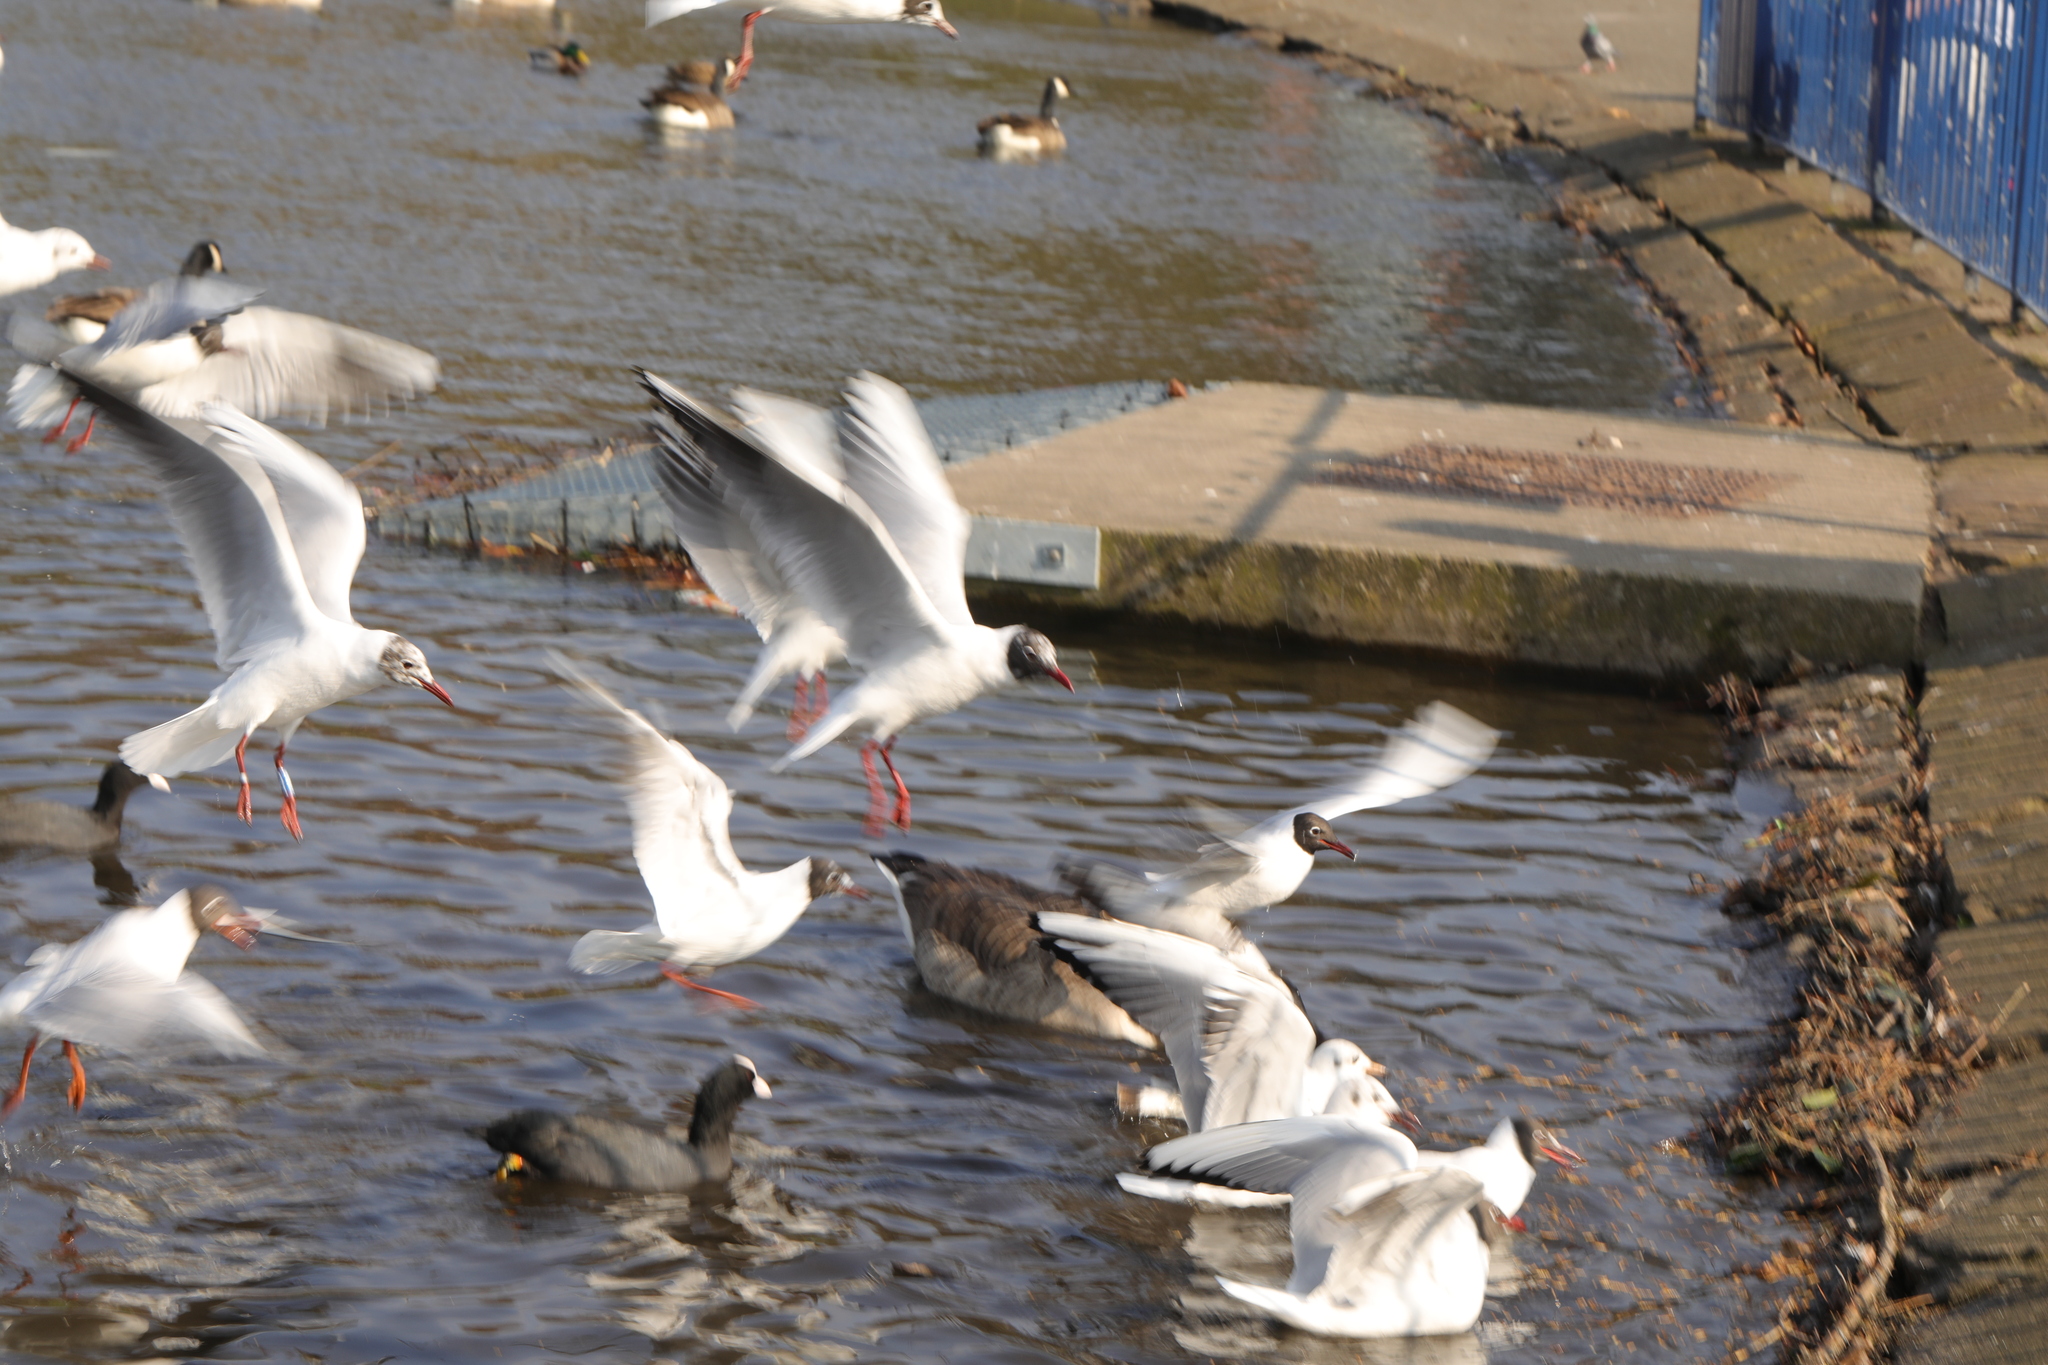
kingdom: Animalia
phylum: Chordata
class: Aves
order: Charadriiformes
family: Laridae
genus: Chroicocephalus
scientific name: Chroicocephalus ridibundus
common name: Black-headed gull
